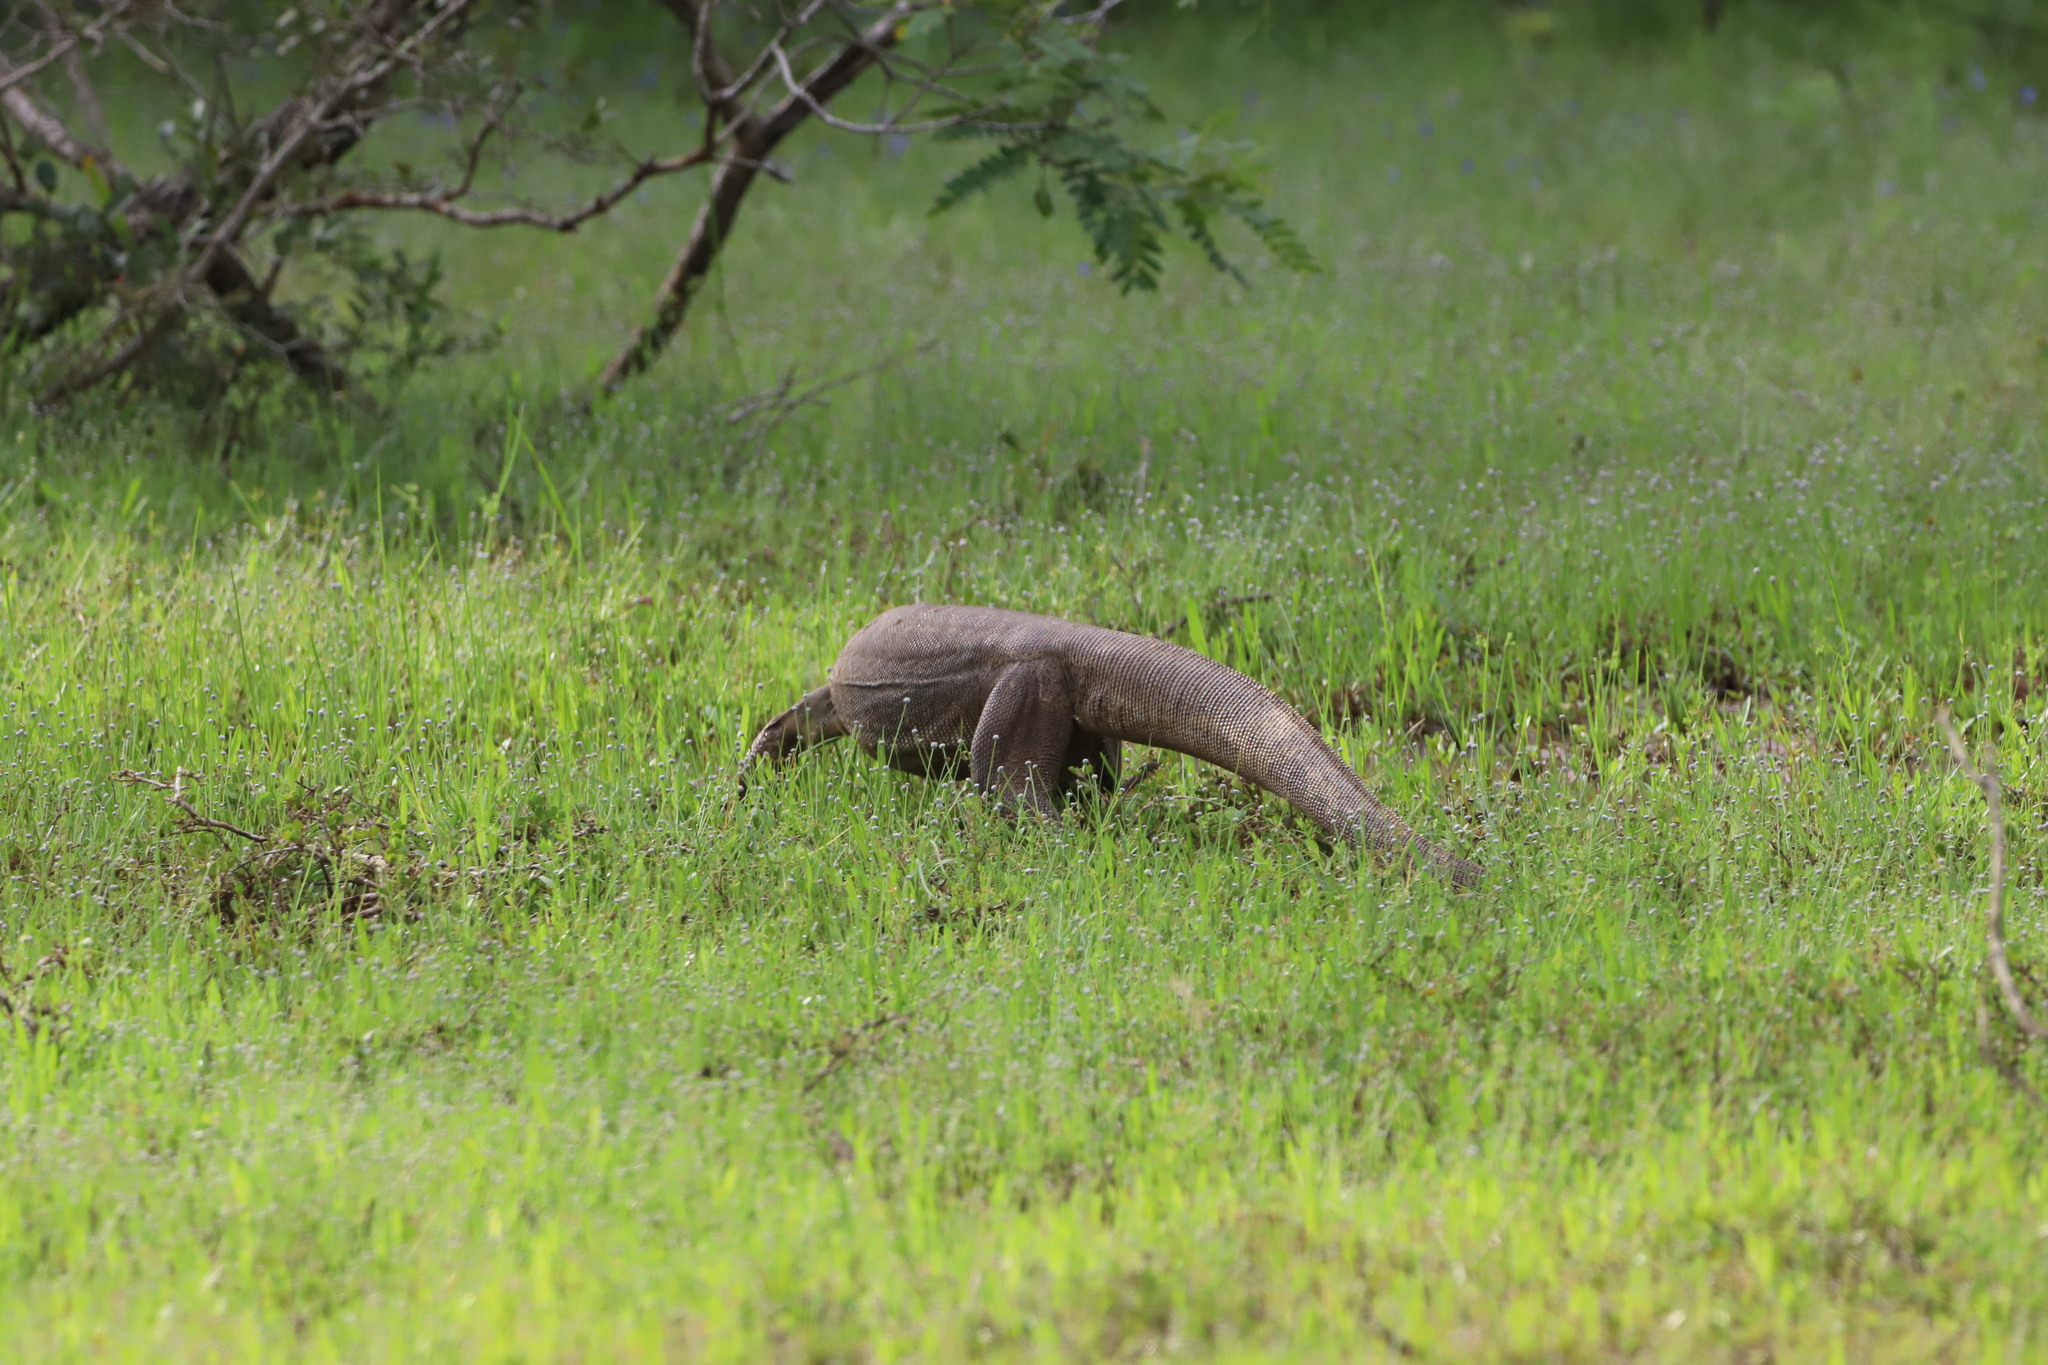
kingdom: Animalia
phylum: Chordata
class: Squamata
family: Varanidae
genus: Varanus
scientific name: Varanus bengalensis
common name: Bengal monitor
